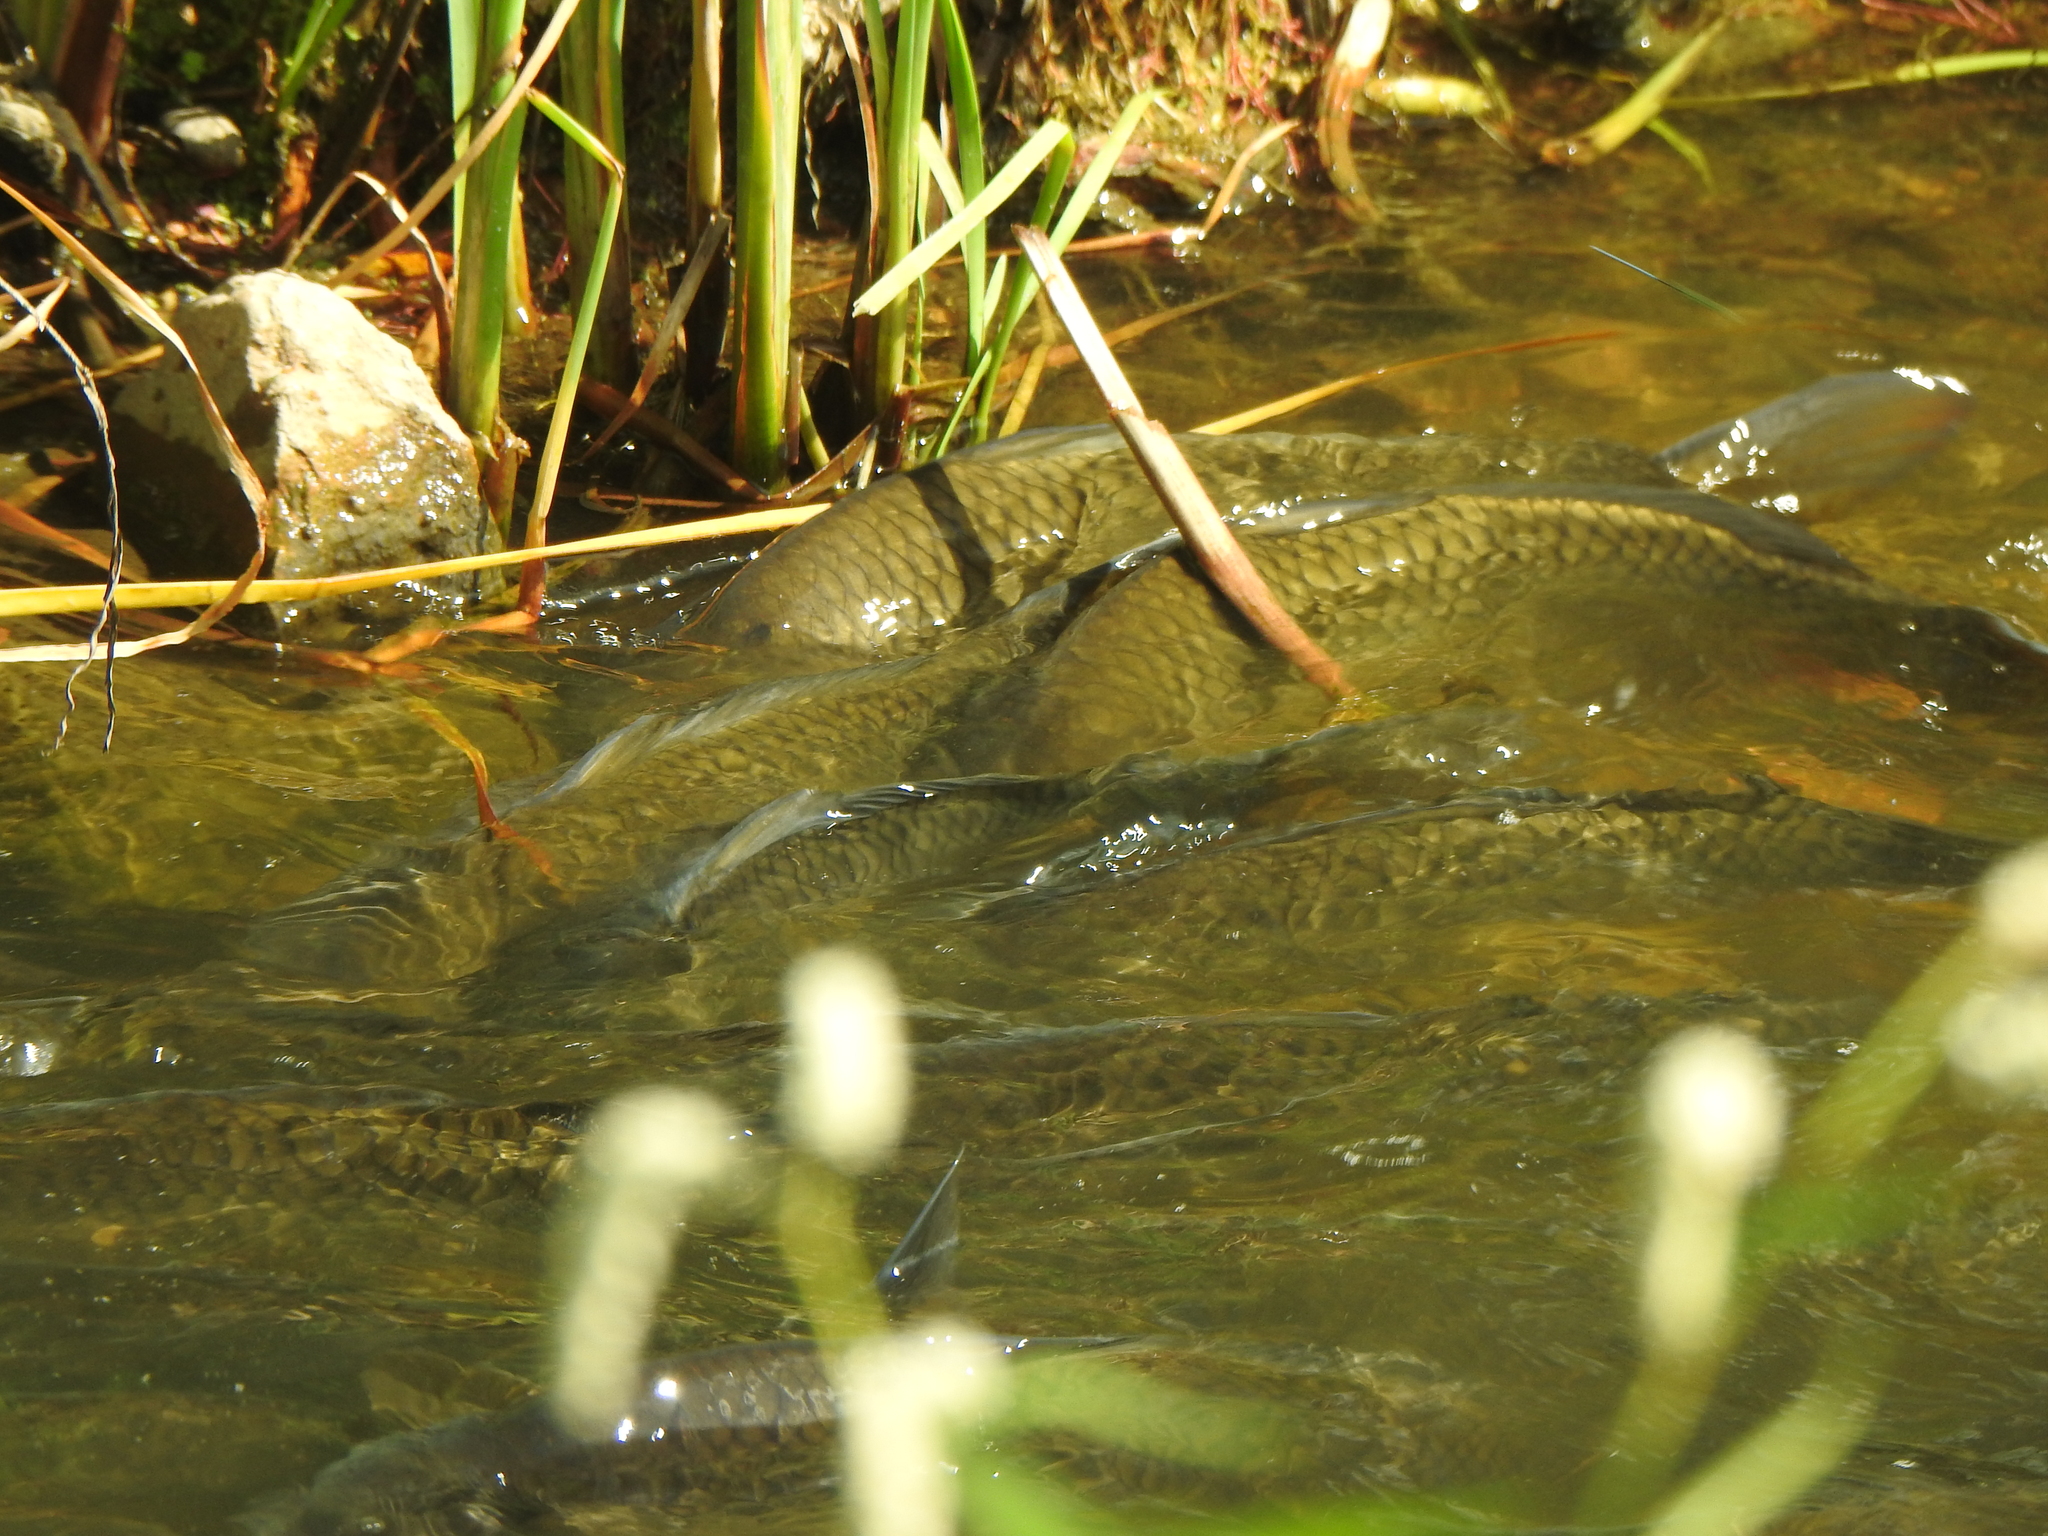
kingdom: Animalia
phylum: Chordata
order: Cypriniformes
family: Cyprinidae
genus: Cyprinus
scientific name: Cyprinus carpio
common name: Common carp
